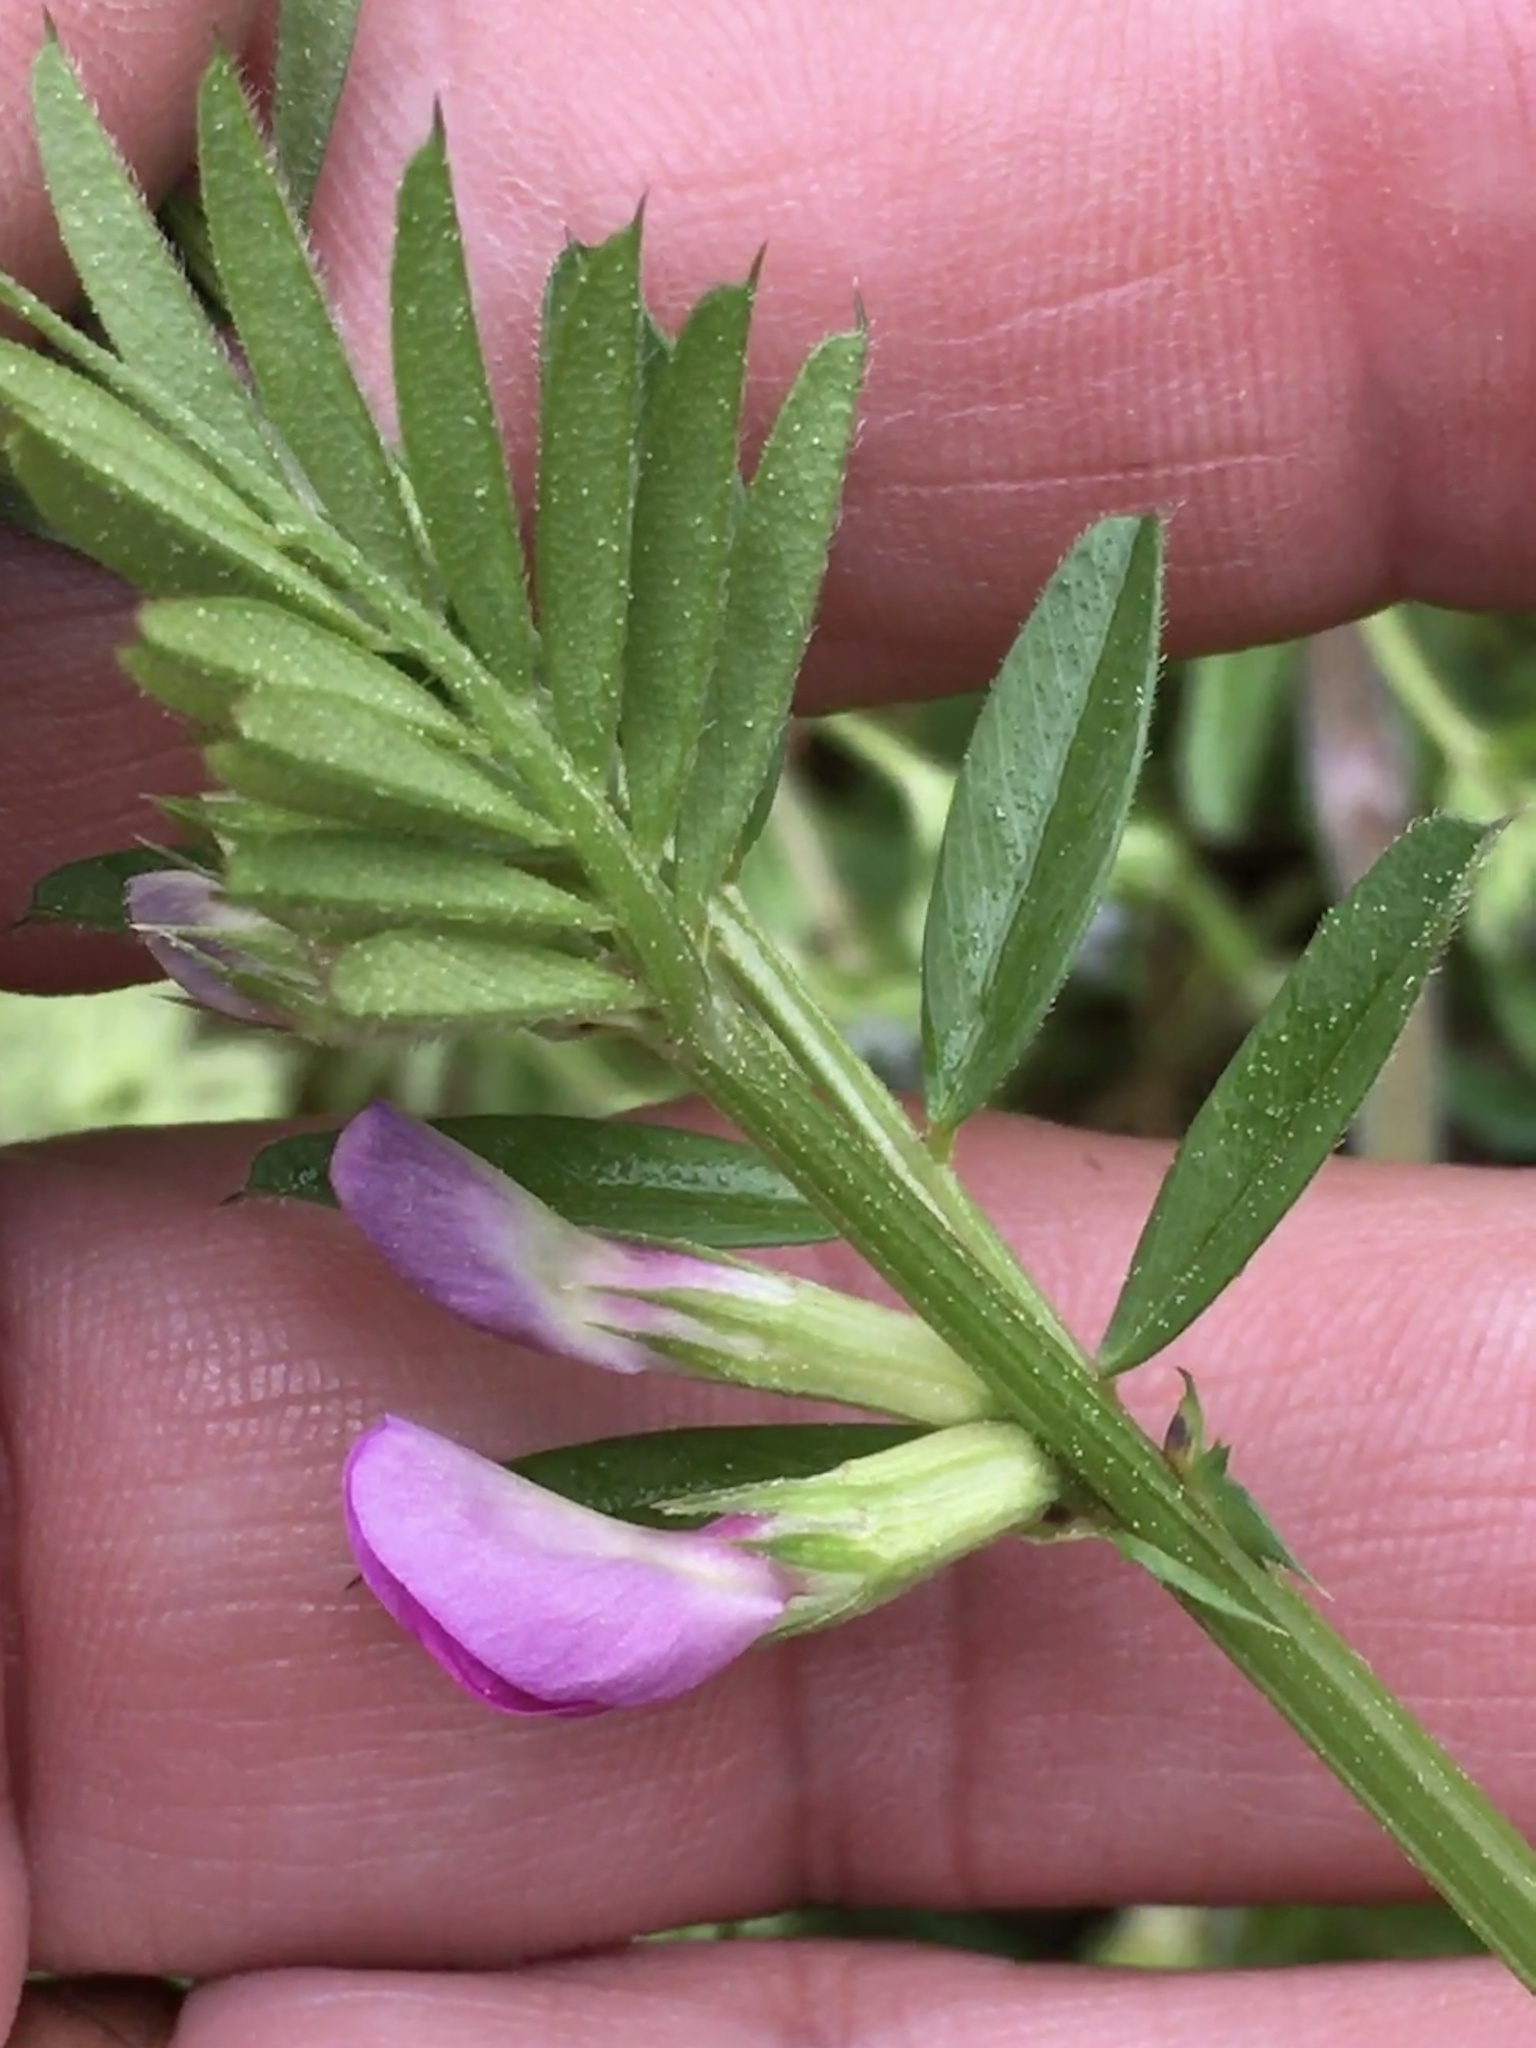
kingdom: Plantae
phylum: Tracheophyta
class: Magnoliopsida
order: Fabales
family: Fabaceae
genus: Vicia
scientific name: Vicia sativa
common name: Garden vetch
